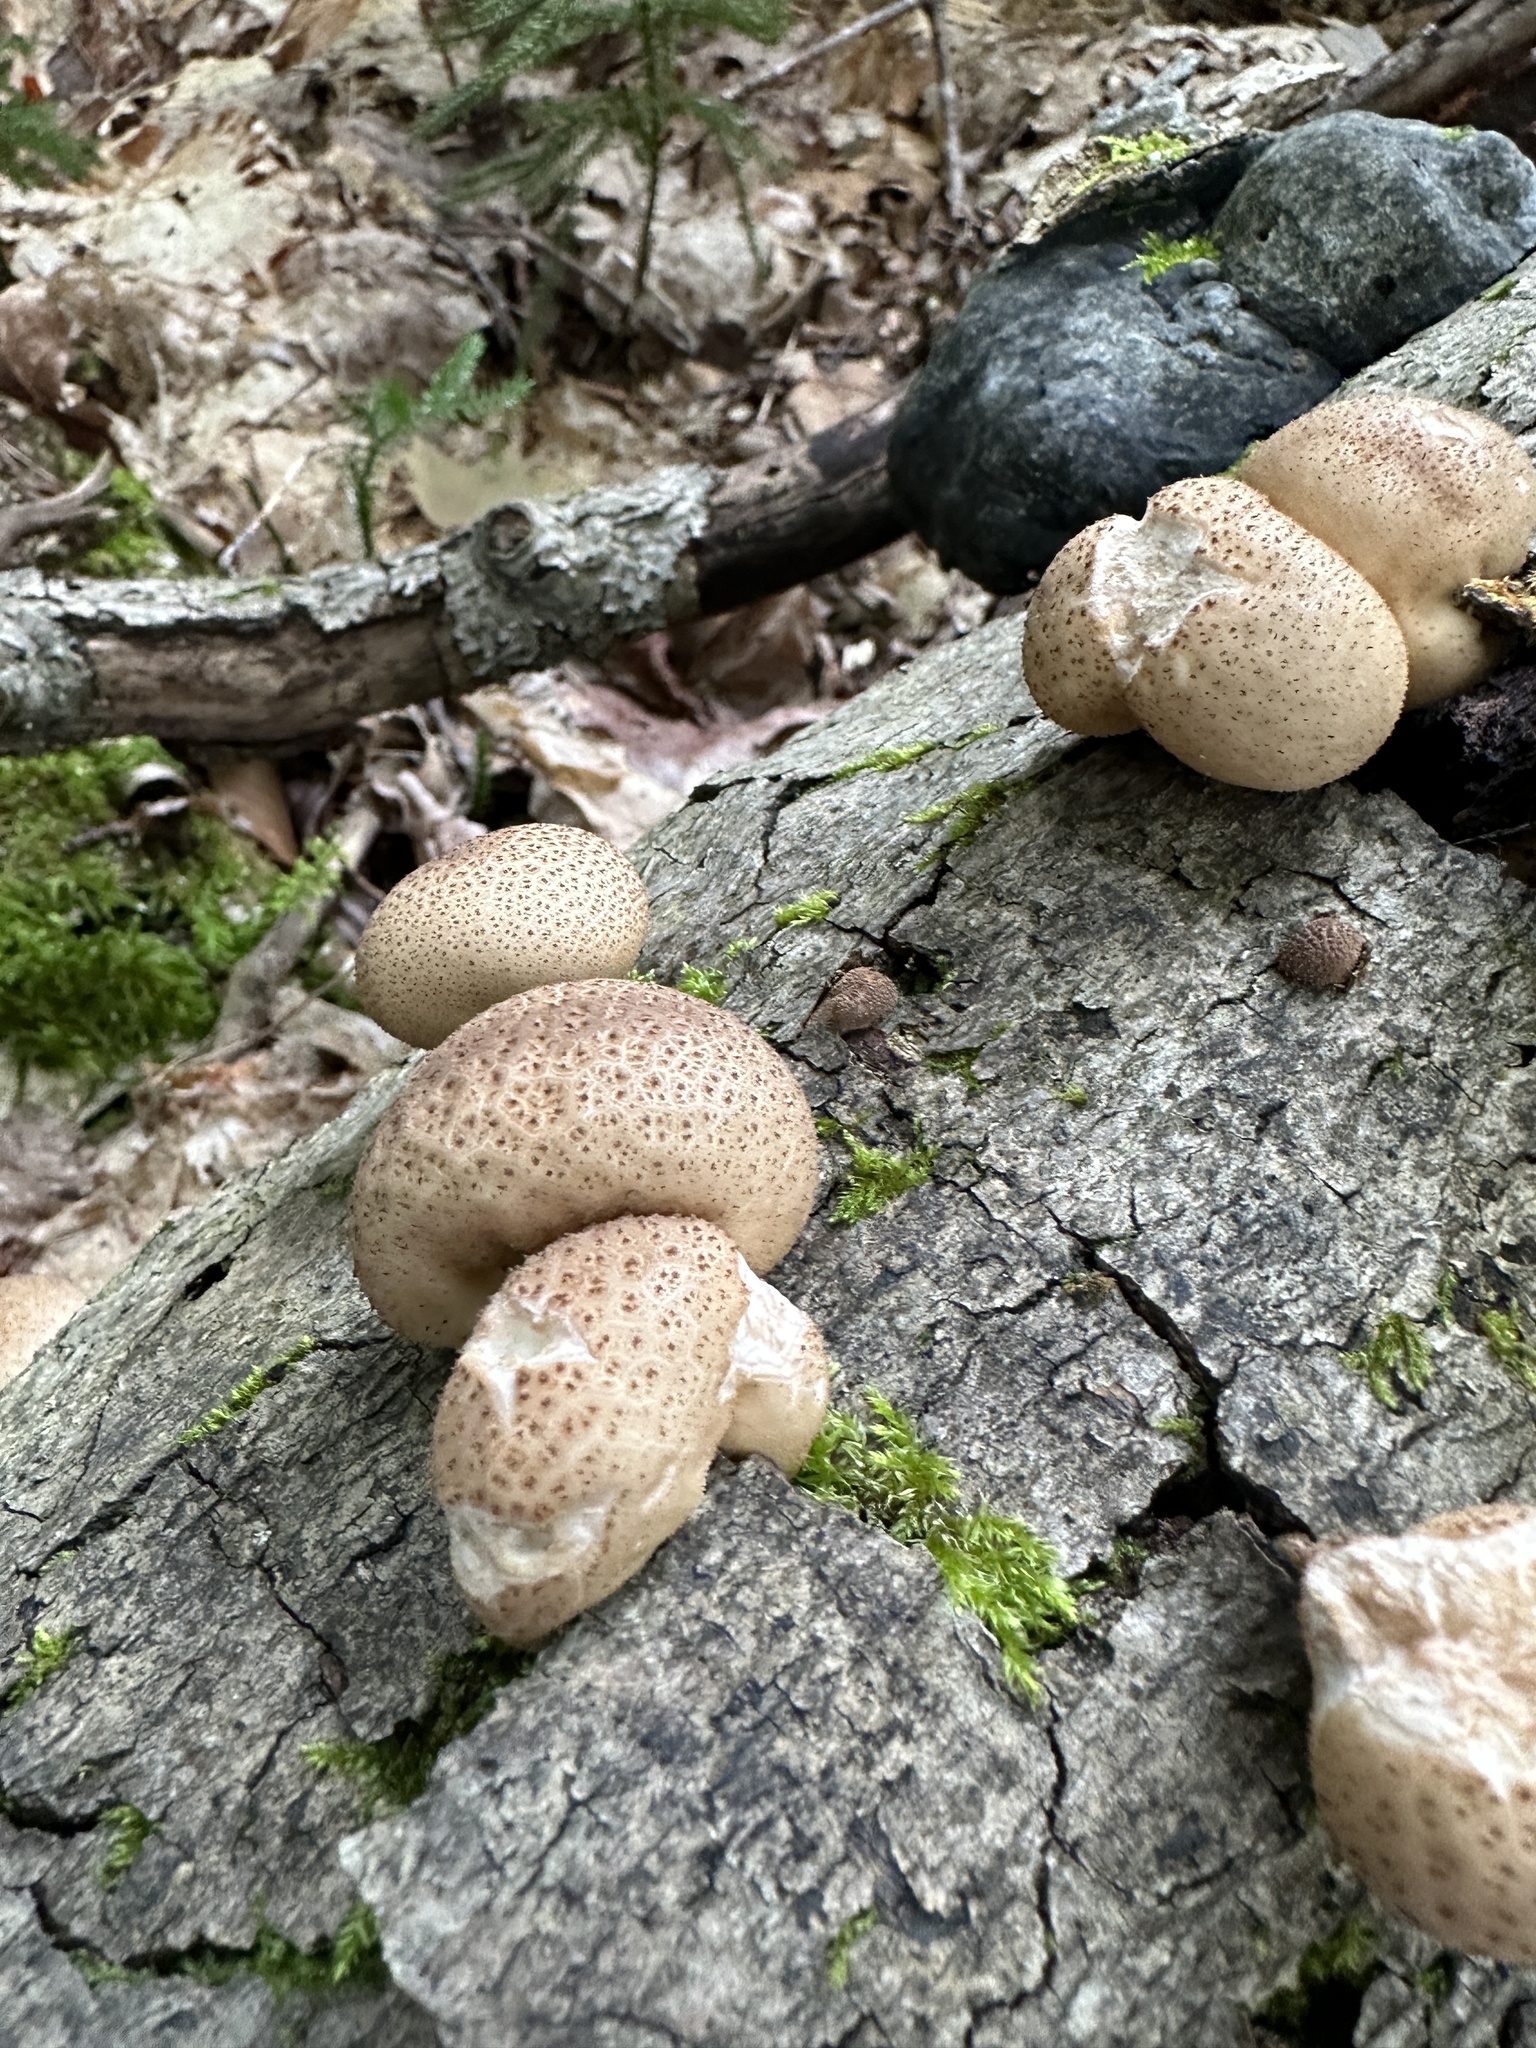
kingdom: Fungi
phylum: Basidiomycota
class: Agaricomycetes
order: Agaricales
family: Lycoperdaceae
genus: Apioperdon
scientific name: Apioperdon pyriforme
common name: Pear-shaped puffball
